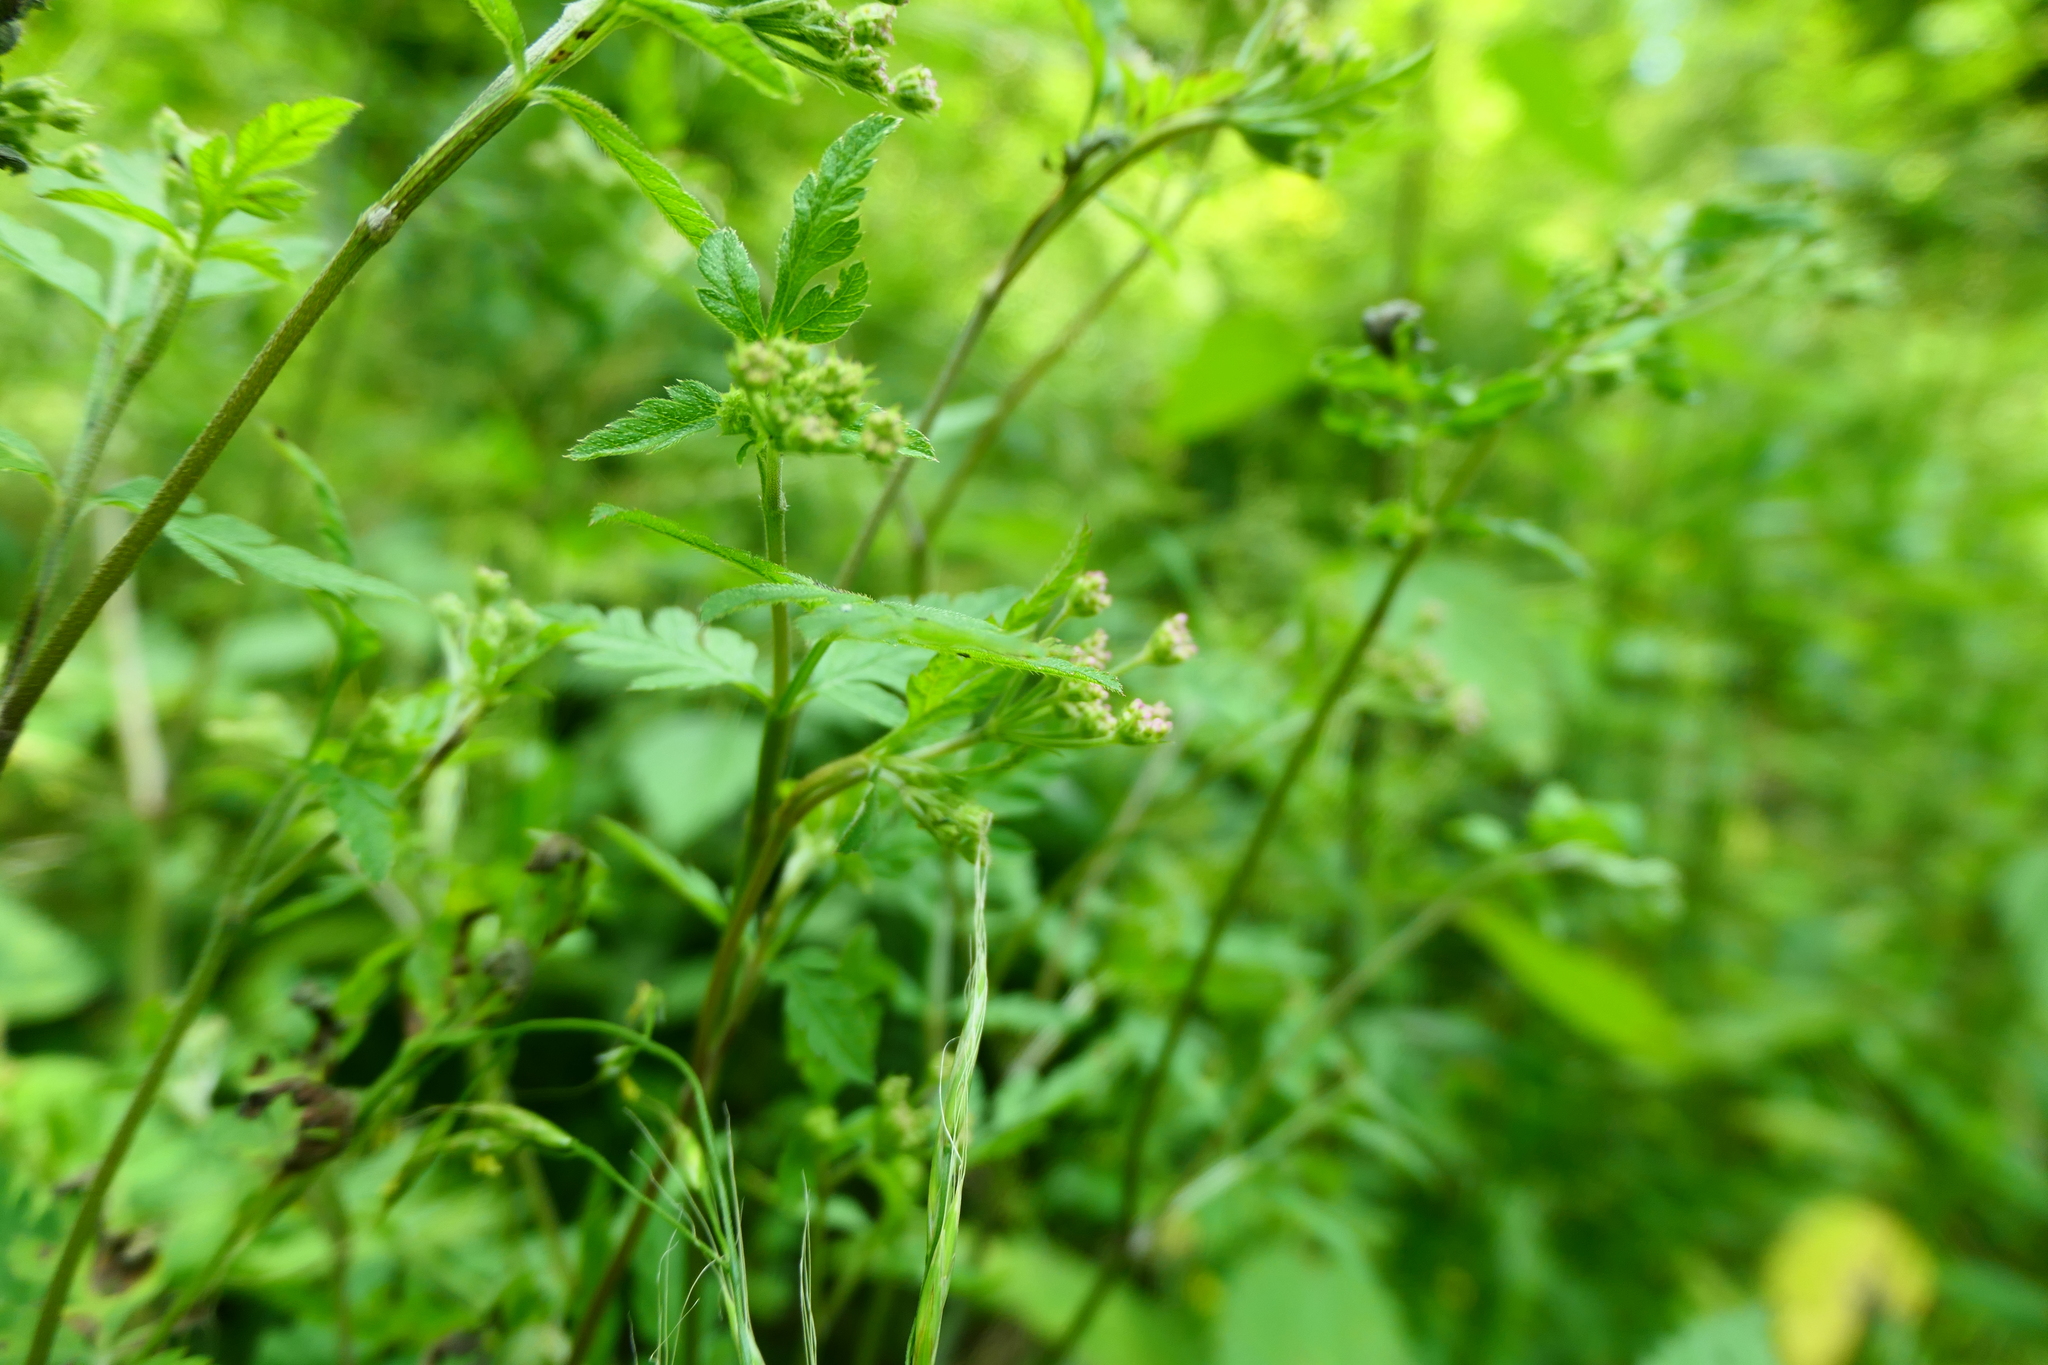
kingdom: Plantae
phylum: Tracheophyta
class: Magnoliopsida
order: Apiales
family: Apiaceae
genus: Torilis
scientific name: Torilis japonica
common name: Upright hedge-parsley
